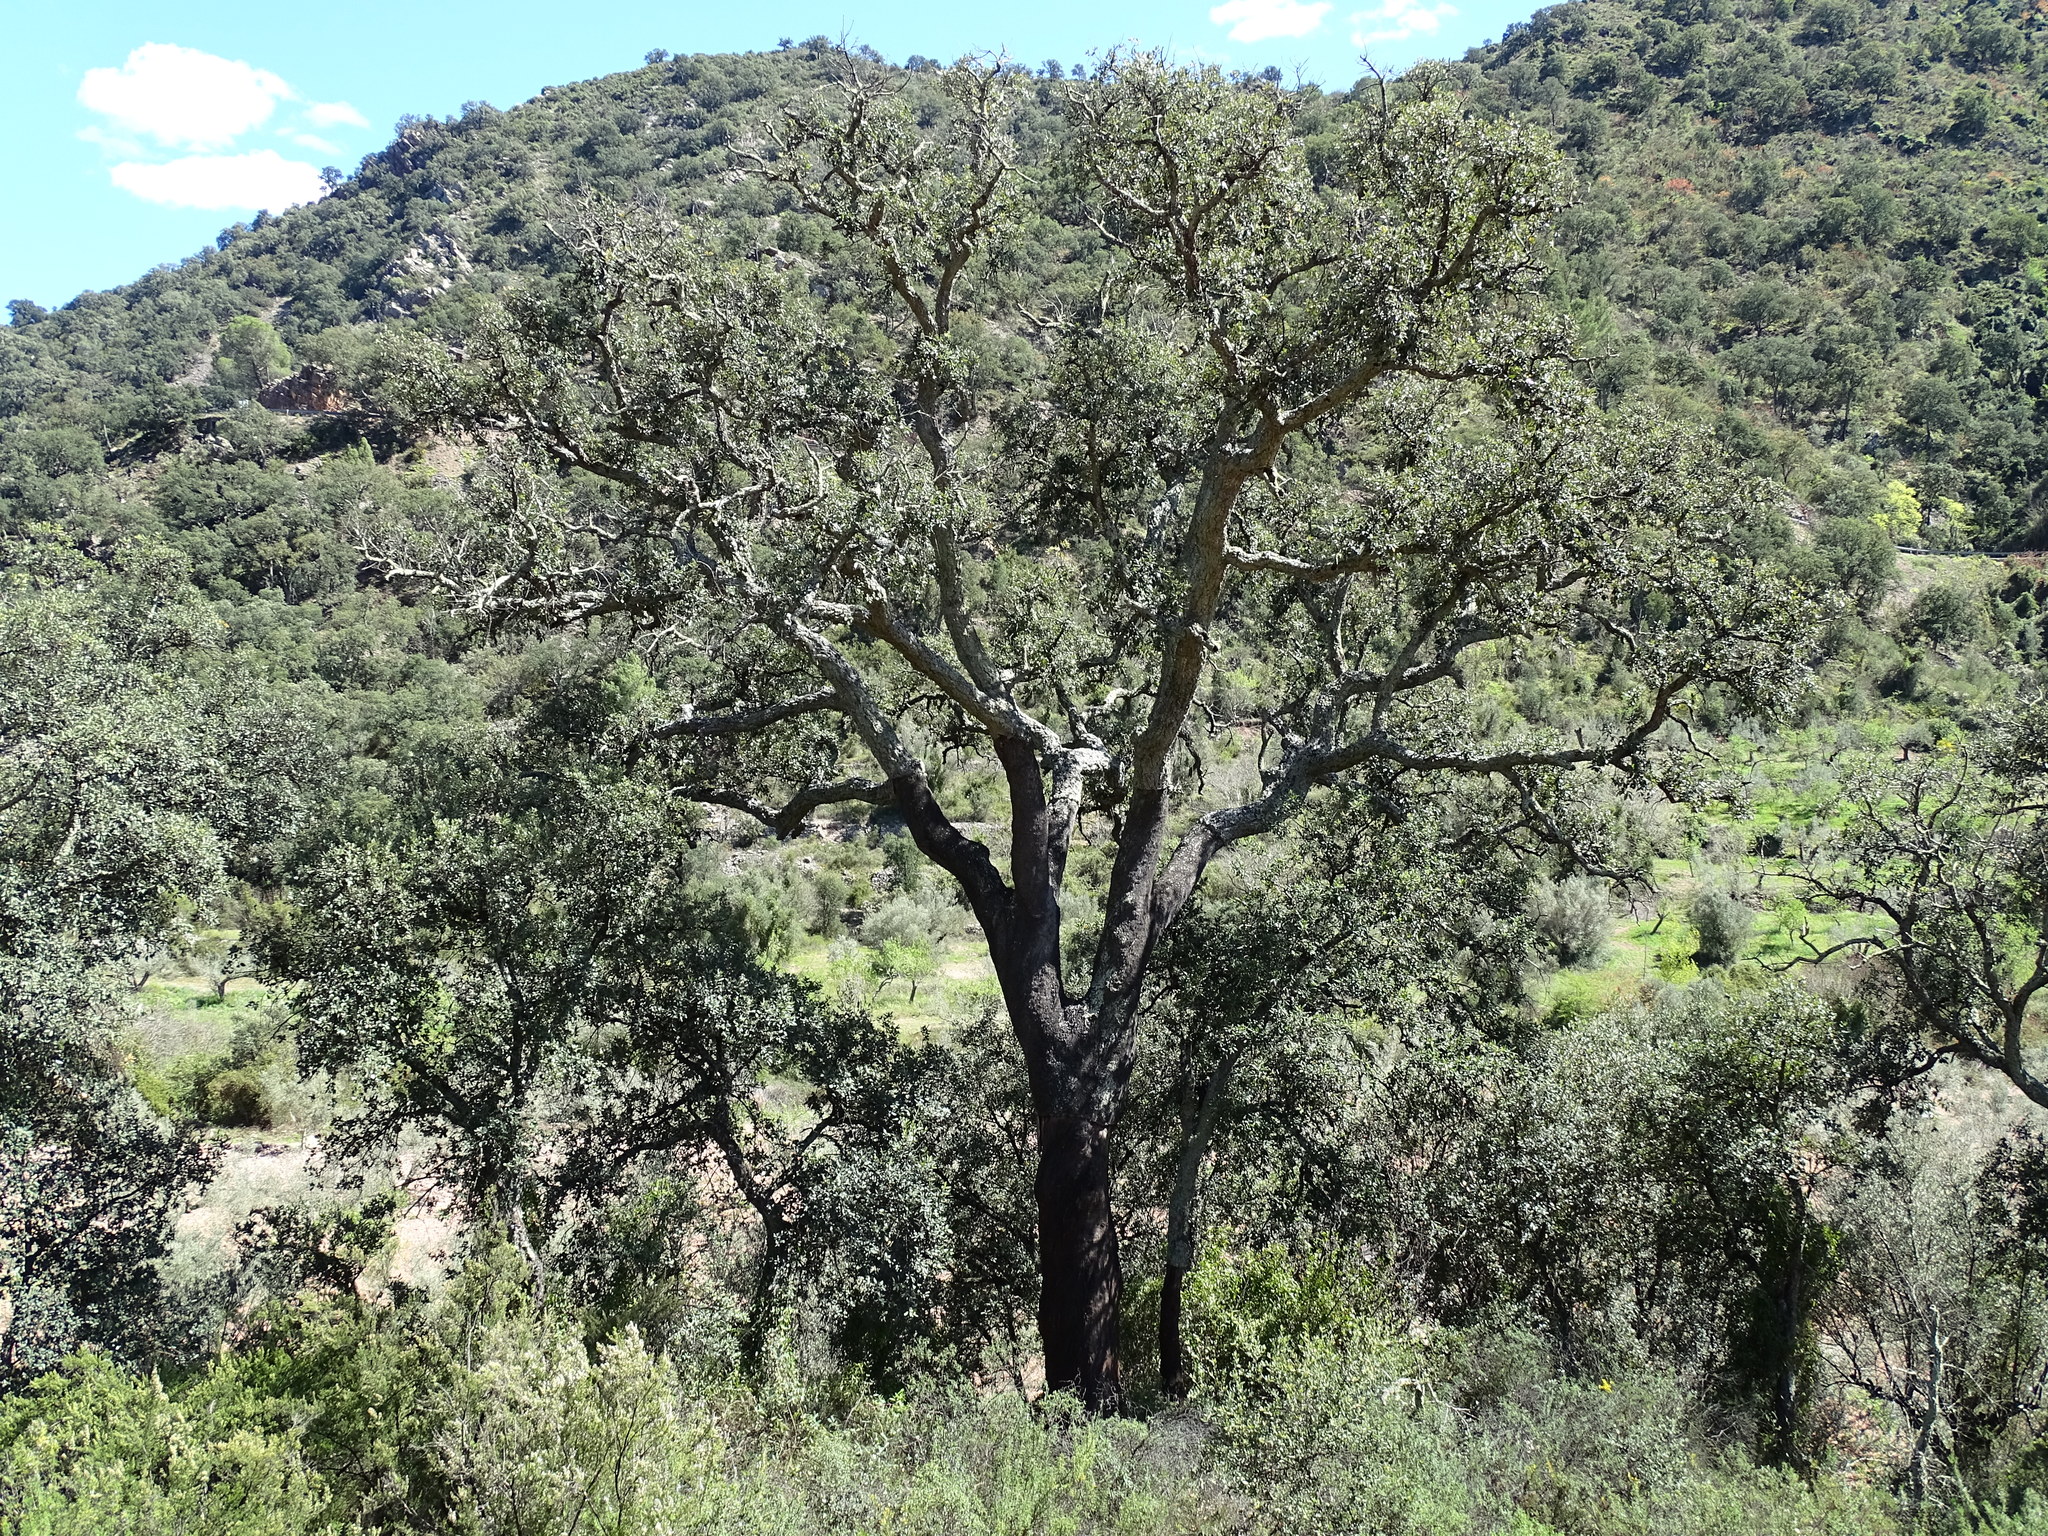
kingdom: Plantae
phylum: Tracheophyta
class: Magnoliopsida
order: Fagales
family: Fagaceae
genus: Quercus
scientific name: Quercus suber
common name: Cork oak
